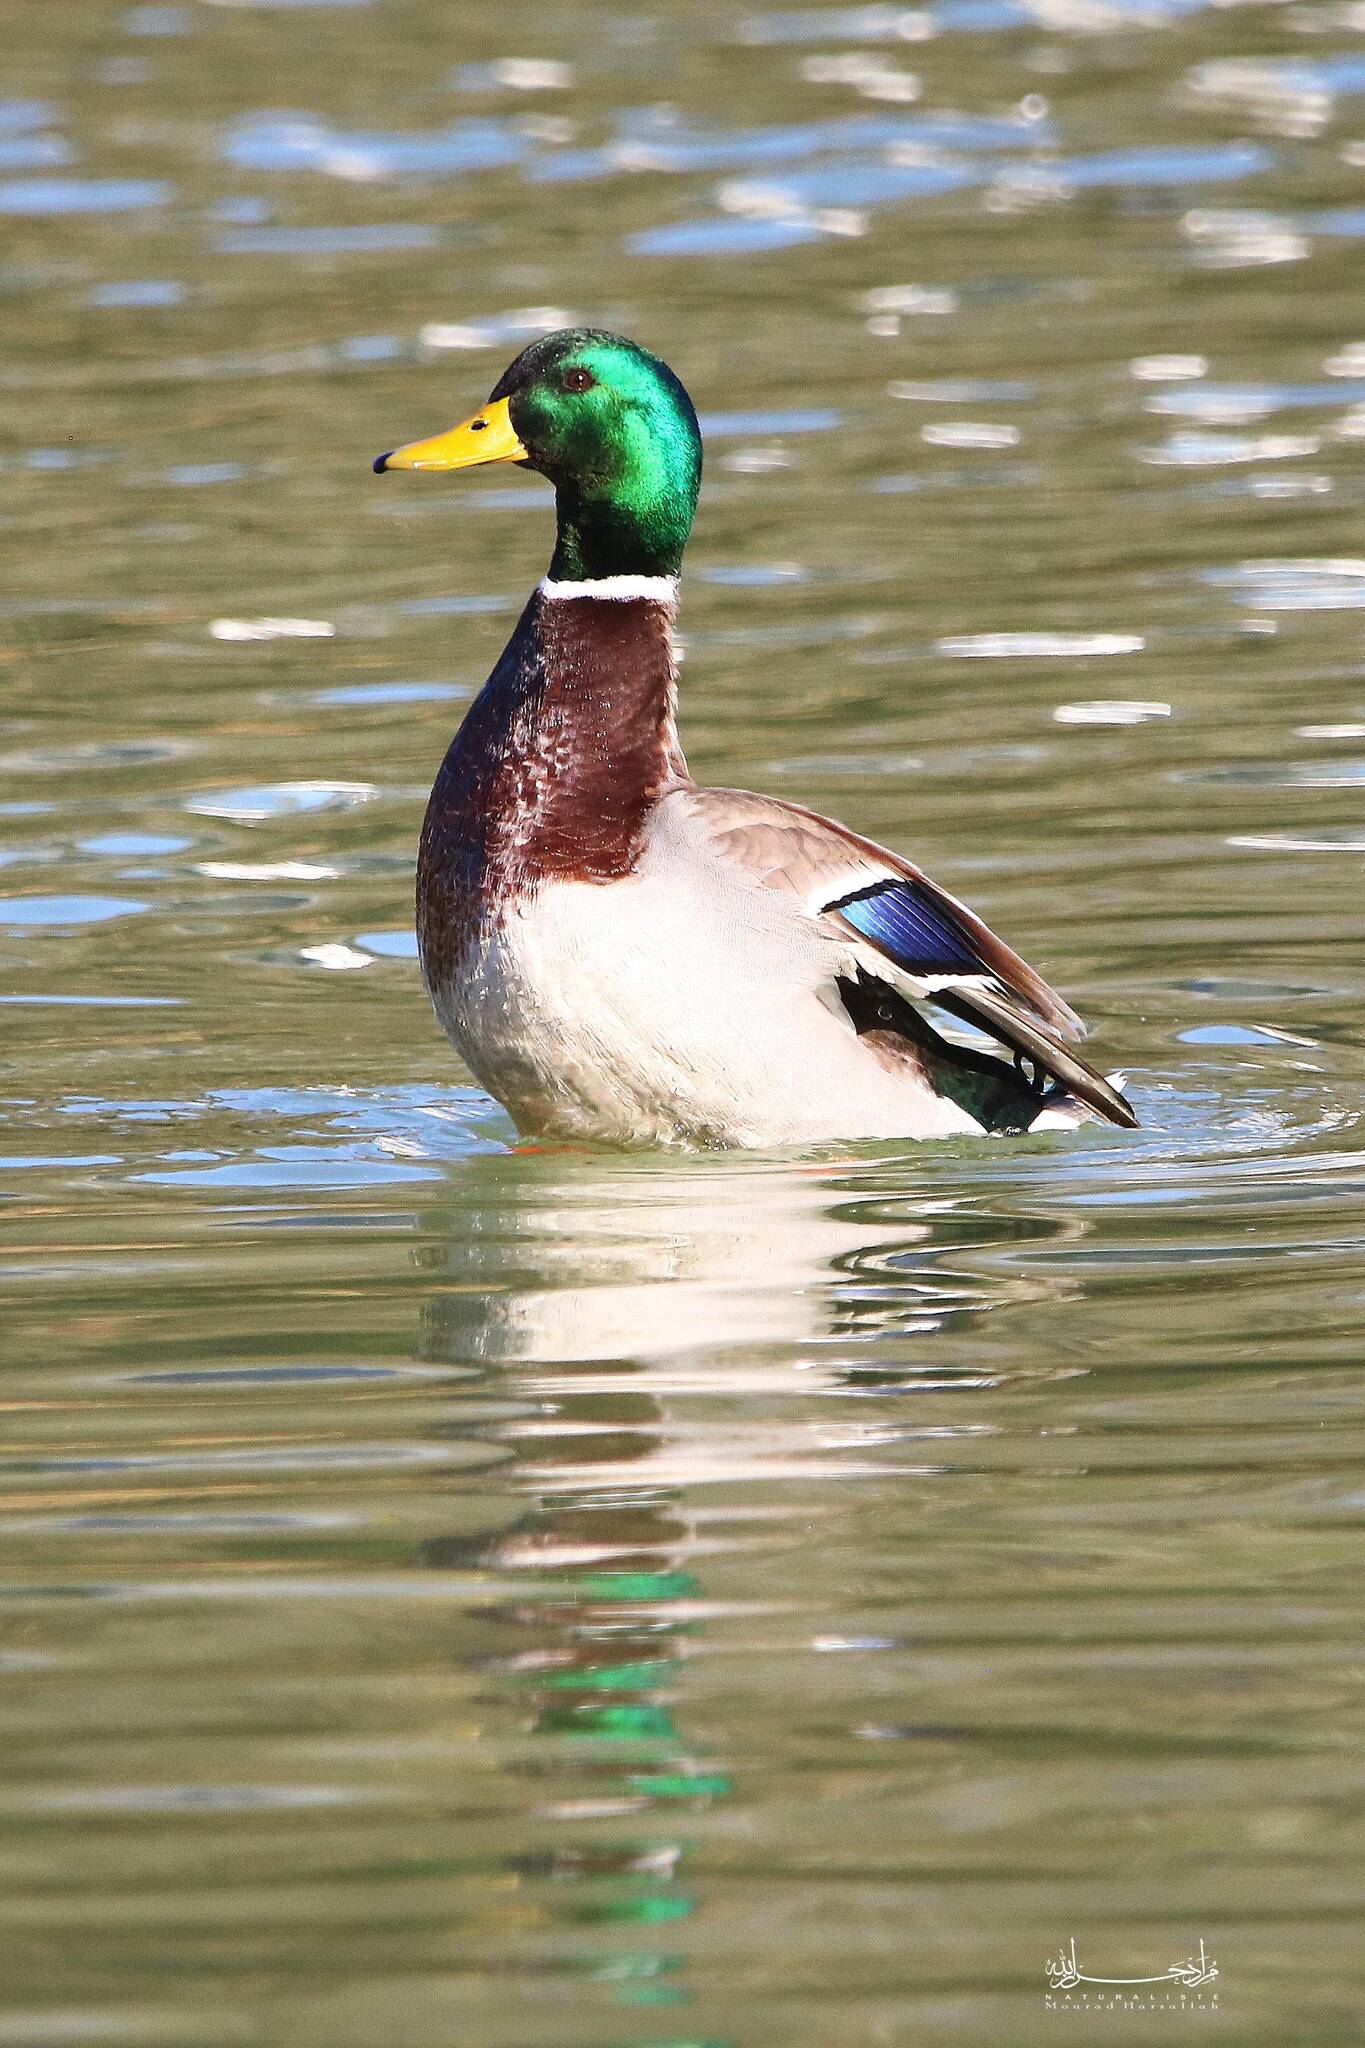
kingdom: Animalia
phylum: Chordata
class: Aves
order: Anseriformes
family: Anatidae
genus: Anas
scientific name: Anas platyrhynchos
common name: Mallard
